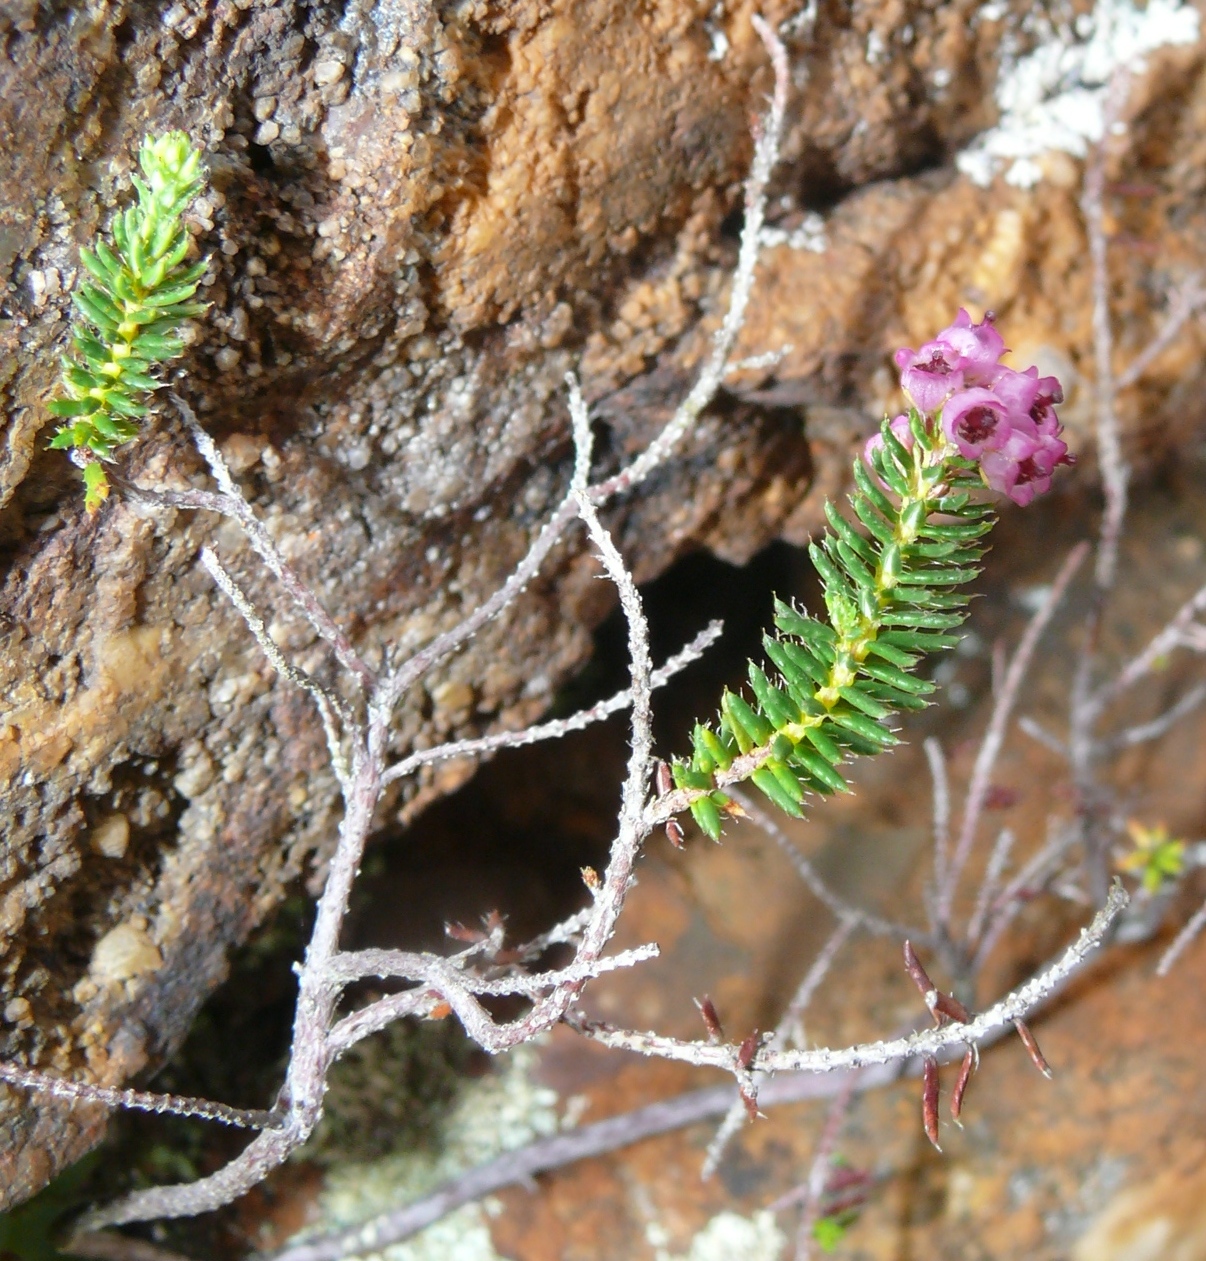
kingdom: Plantae
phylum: Tracheophyta
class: Magnoliopsida
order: Ericales
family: Ericaceae
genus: Erica
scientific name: Erica strigosa
